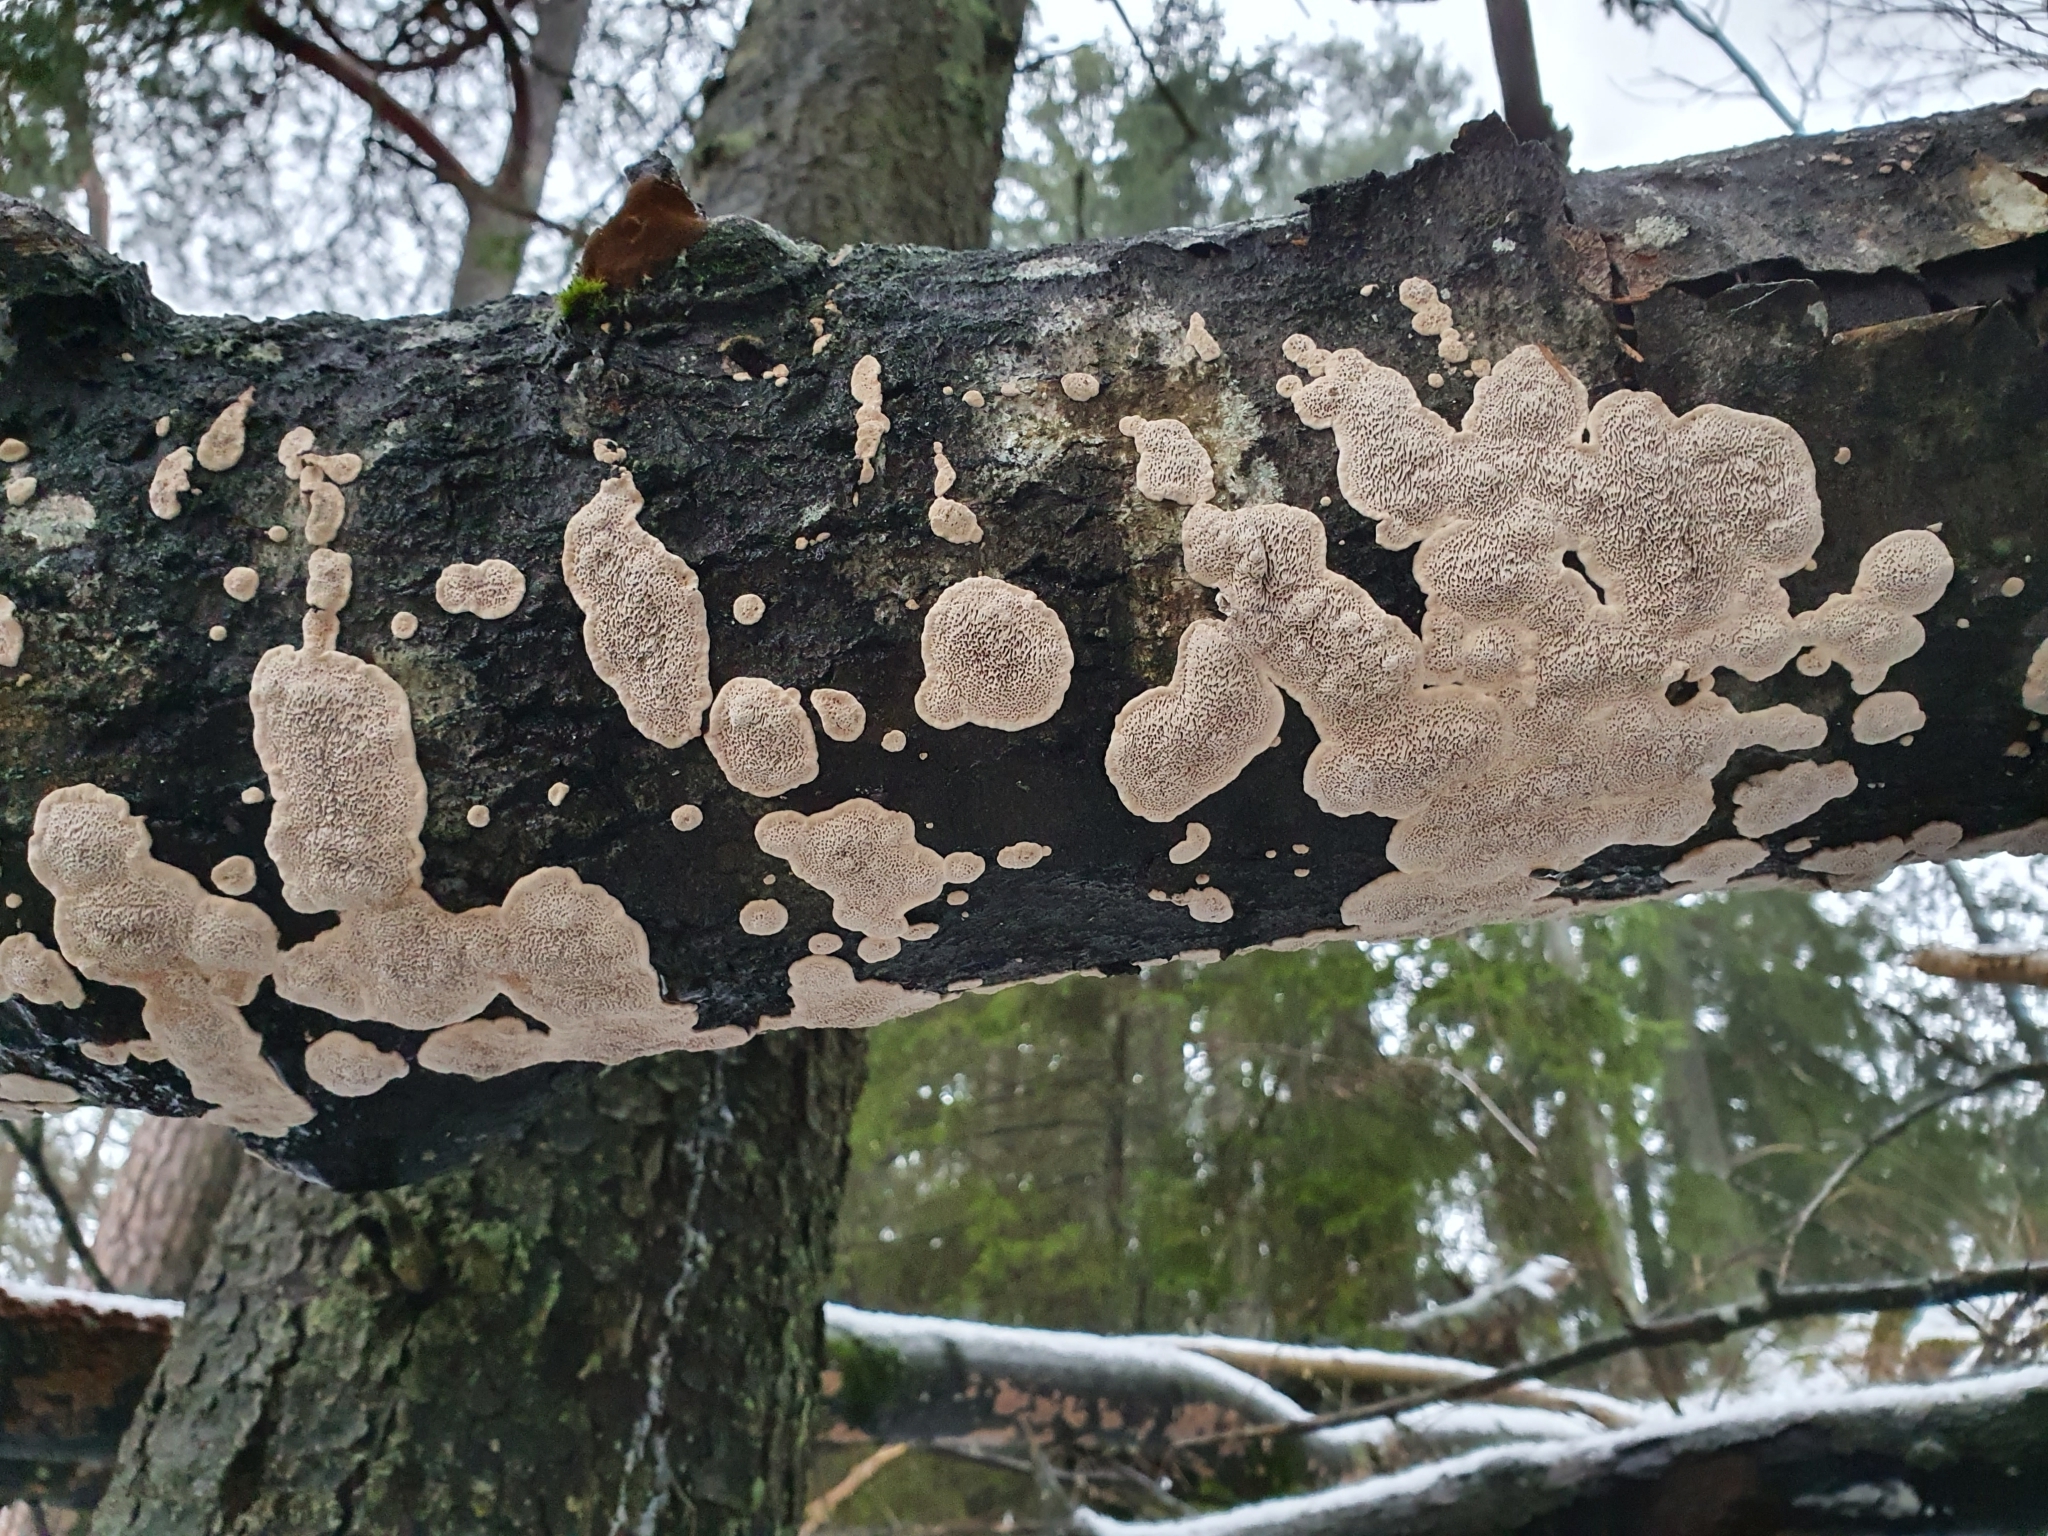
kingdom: Fungi
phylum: Basidiomycota
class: Agaricomycetes
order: Polyporales
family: Polyporaceae
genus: Podofomes
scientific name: Podofomes mollis
